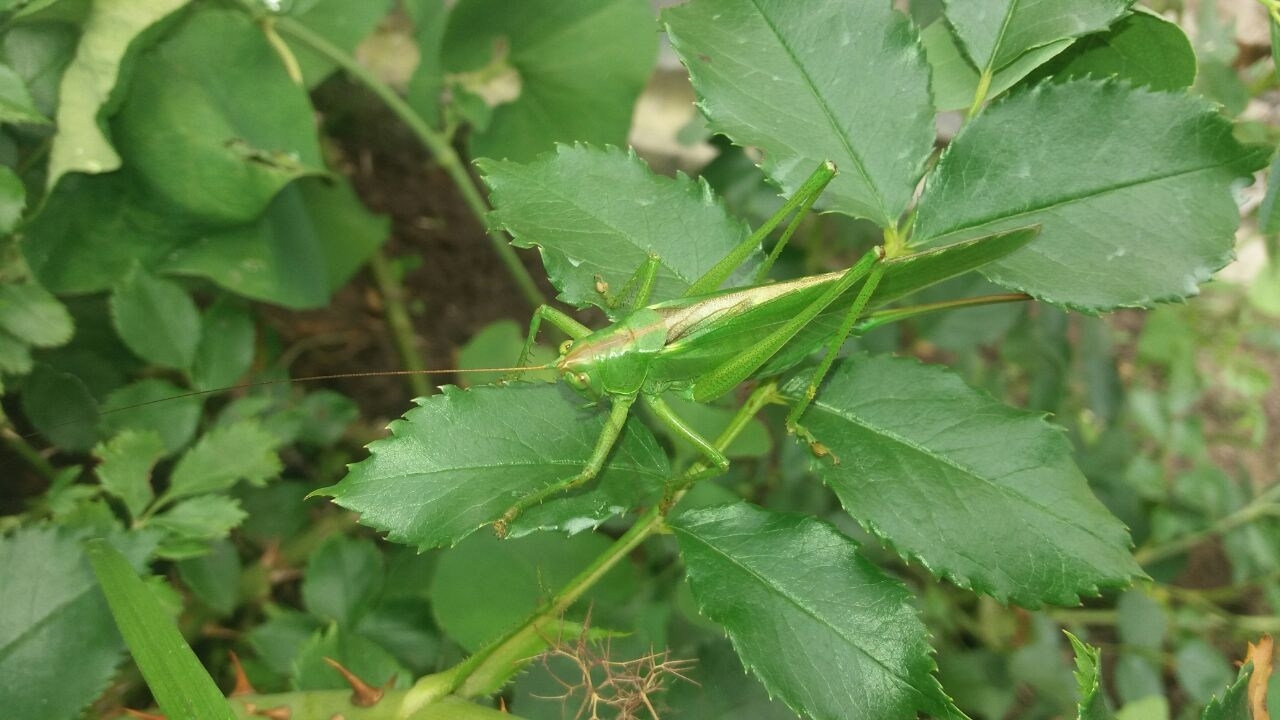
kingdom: Animalia
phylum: Arthropoda
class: Insecta
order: Orthoptera
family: Tettigoniidae
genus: Tettigonia
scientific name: Tettigonia viridissima
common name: Great green bush-cricket
